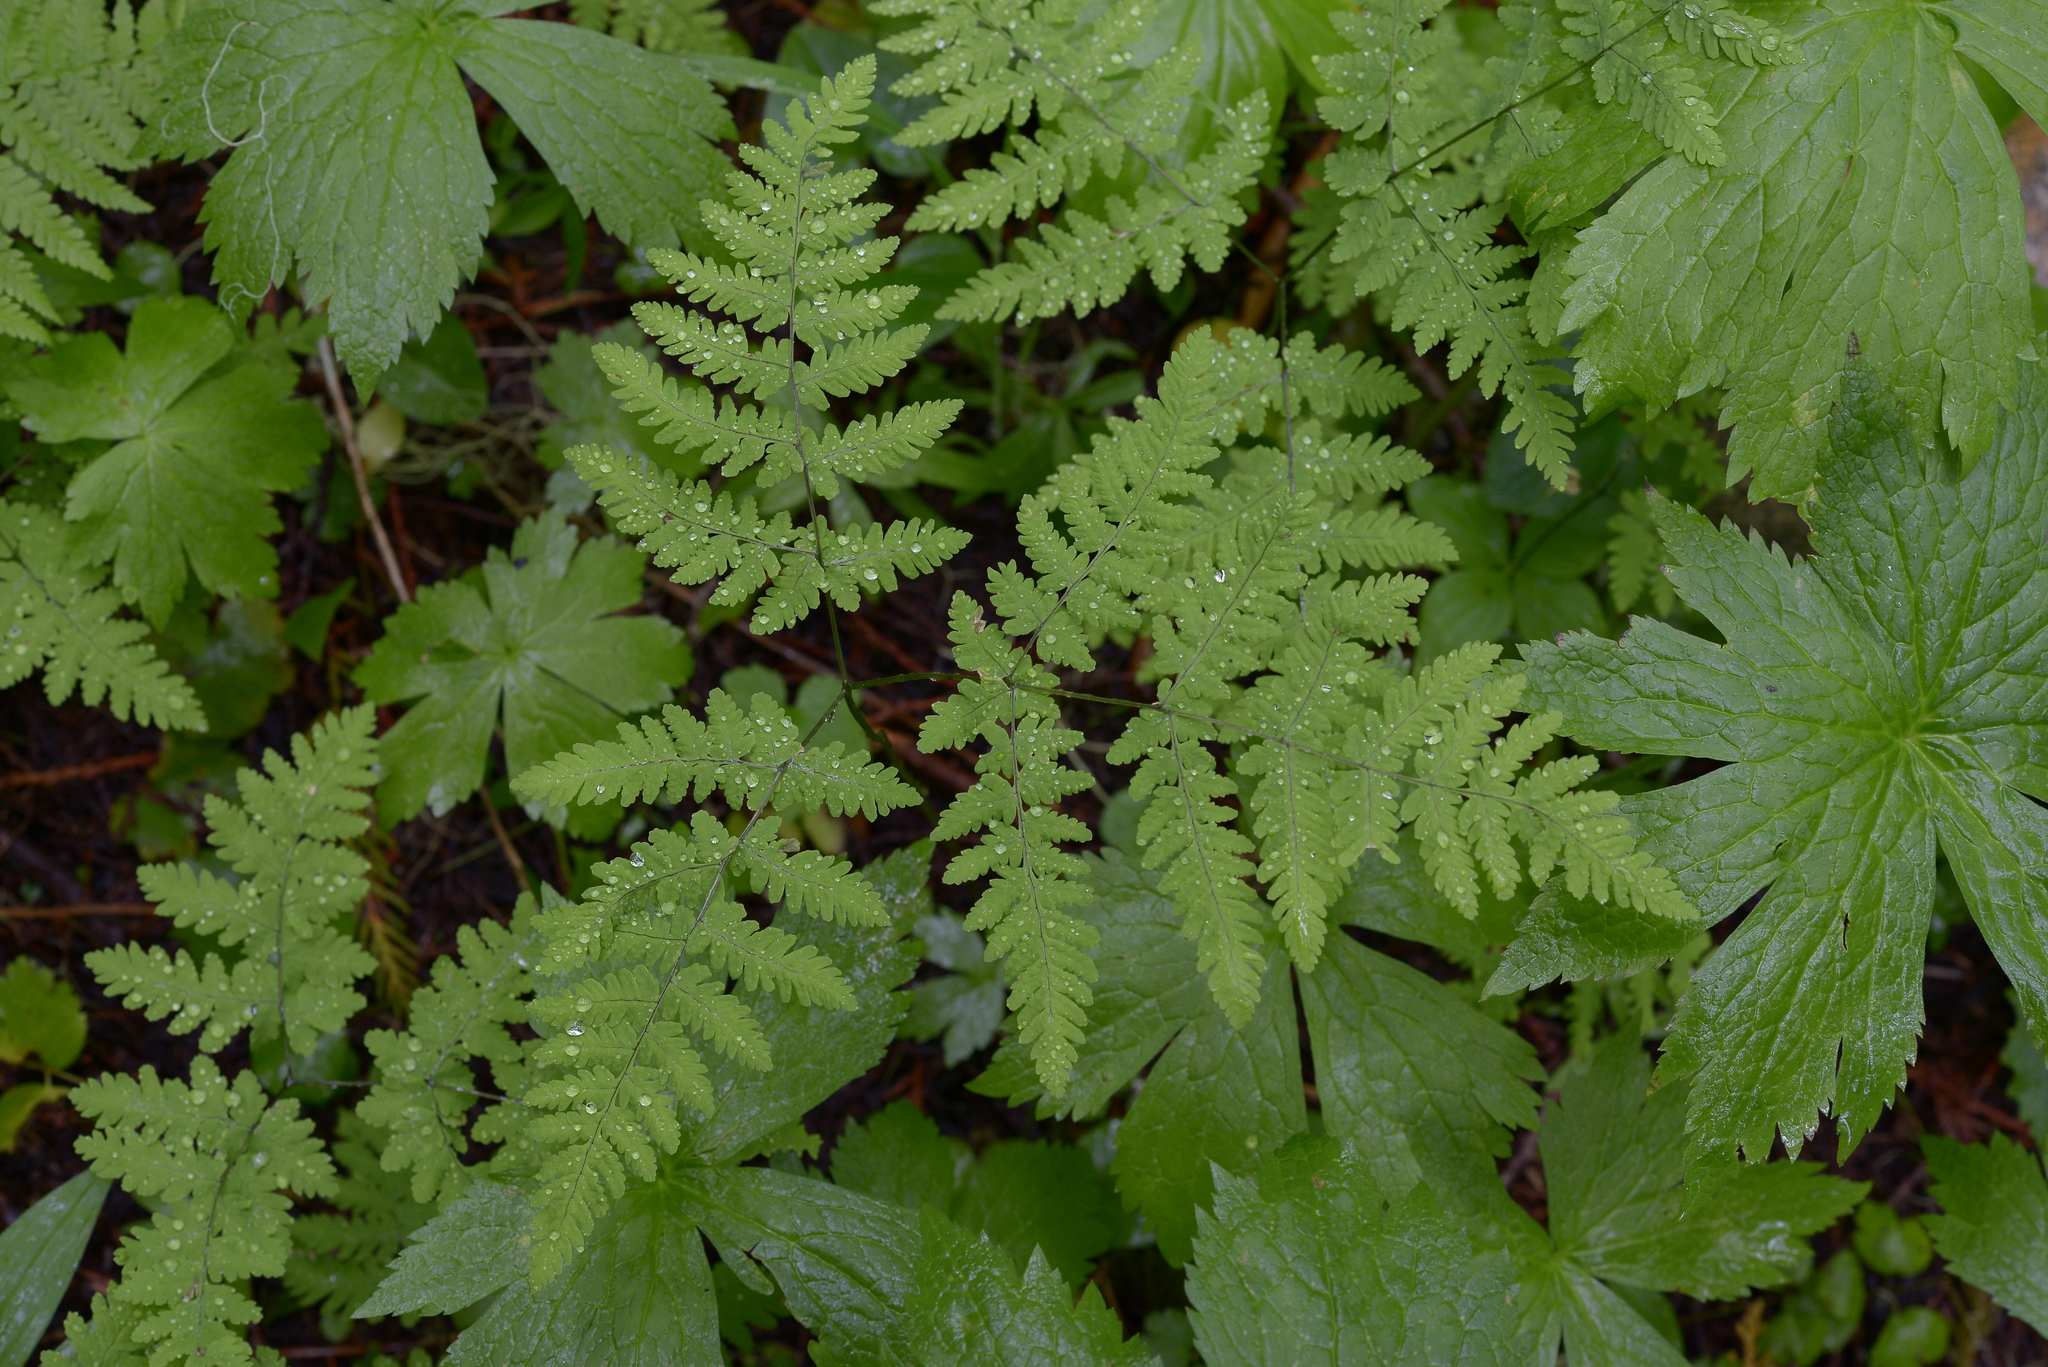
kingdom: Plantae
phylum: Tracheophyta
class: Polypodiopsida
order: Polypodiales
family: Cystopteridaceae
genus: Gymnocarpium
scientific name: Gymnocarpium disjunctum
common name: Western oak fern
